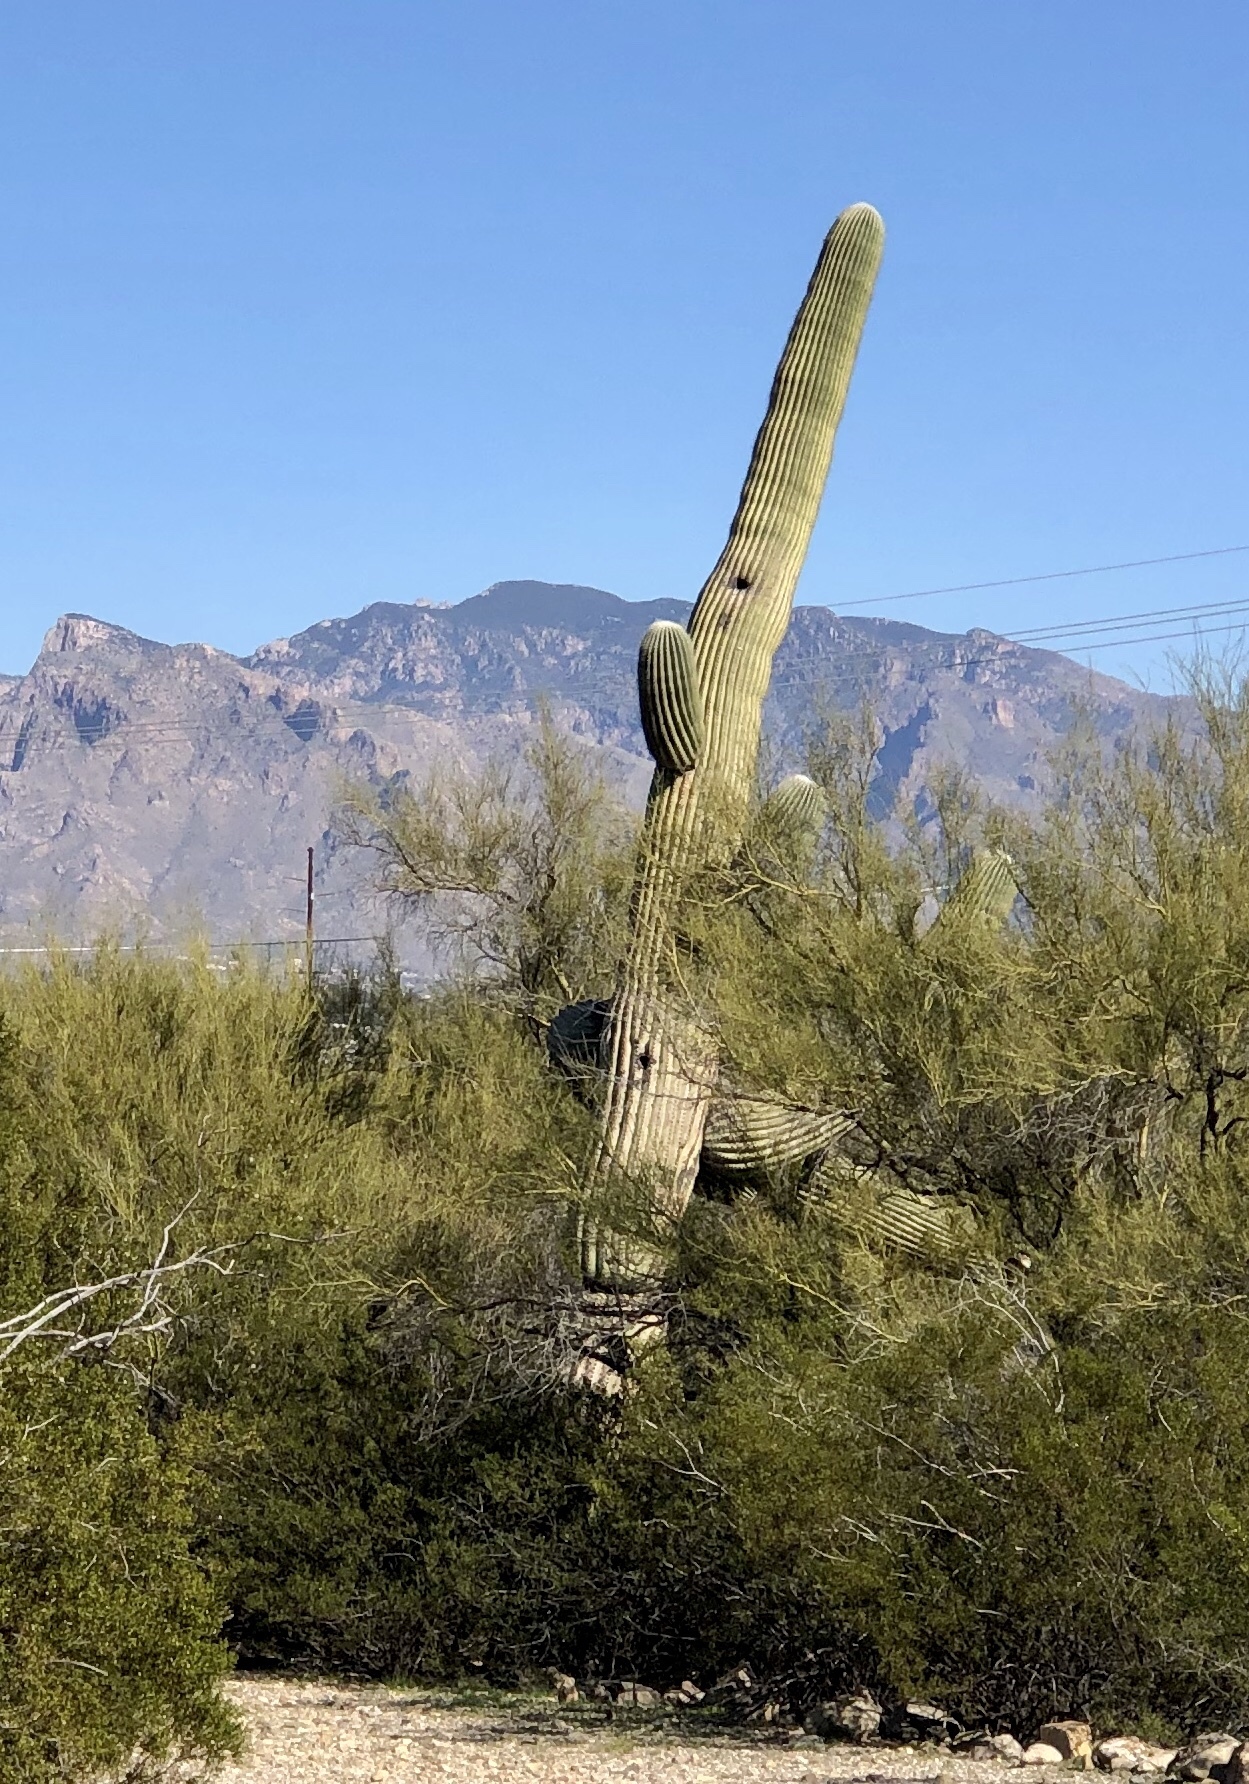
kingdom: Plantae
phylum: Tracheophyta
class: Magnoliopsida
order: Caryophyllales
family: Cactaceae
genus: Carnegiea
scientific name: Carnegiea gigantea
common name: Saguaro
